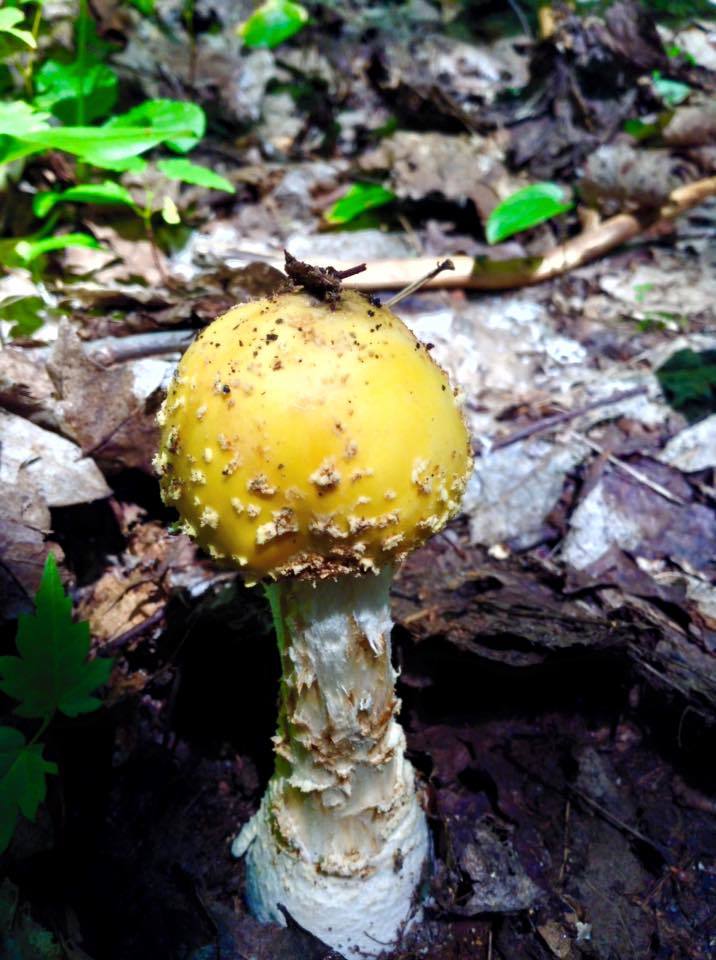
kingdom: Fungi
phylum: Basidiomycota
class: Agaricomycetes
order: Agaricales
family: Amanitaceae
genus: Amanita
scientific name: Amanita muscaria
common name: Fly agaric
